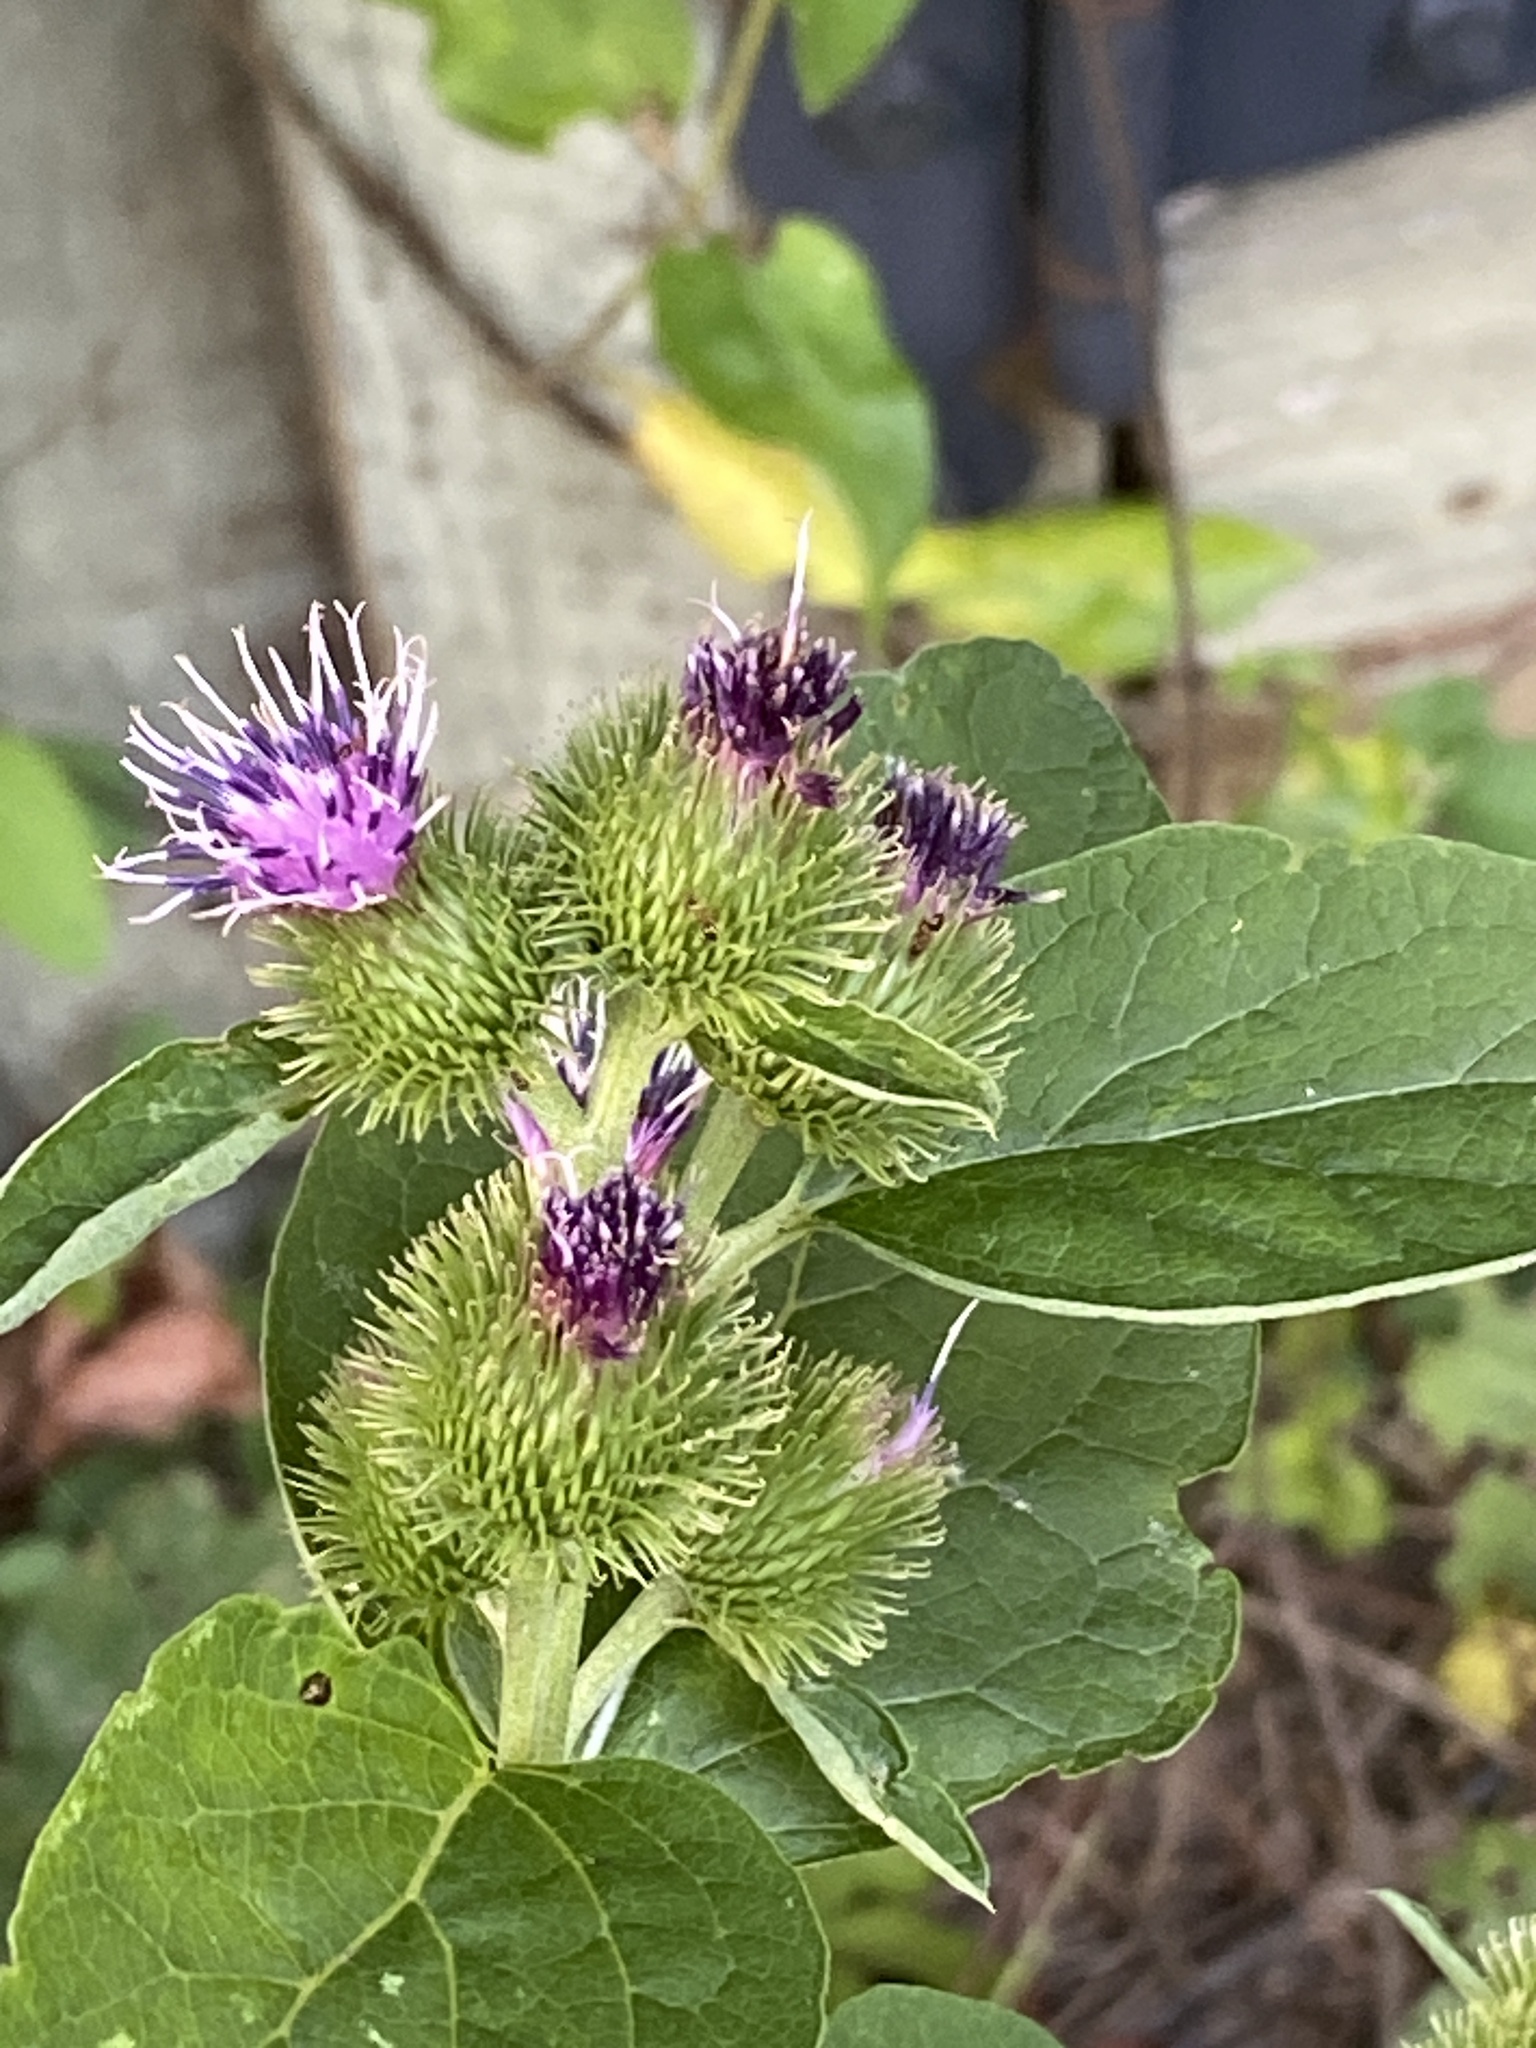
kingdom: Plantae
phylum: Tracheophyta
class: Magnoliopsida
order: Asterales
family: Asteraceae
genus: Arctium
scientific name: Arctium minus
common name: Lesser burdock
